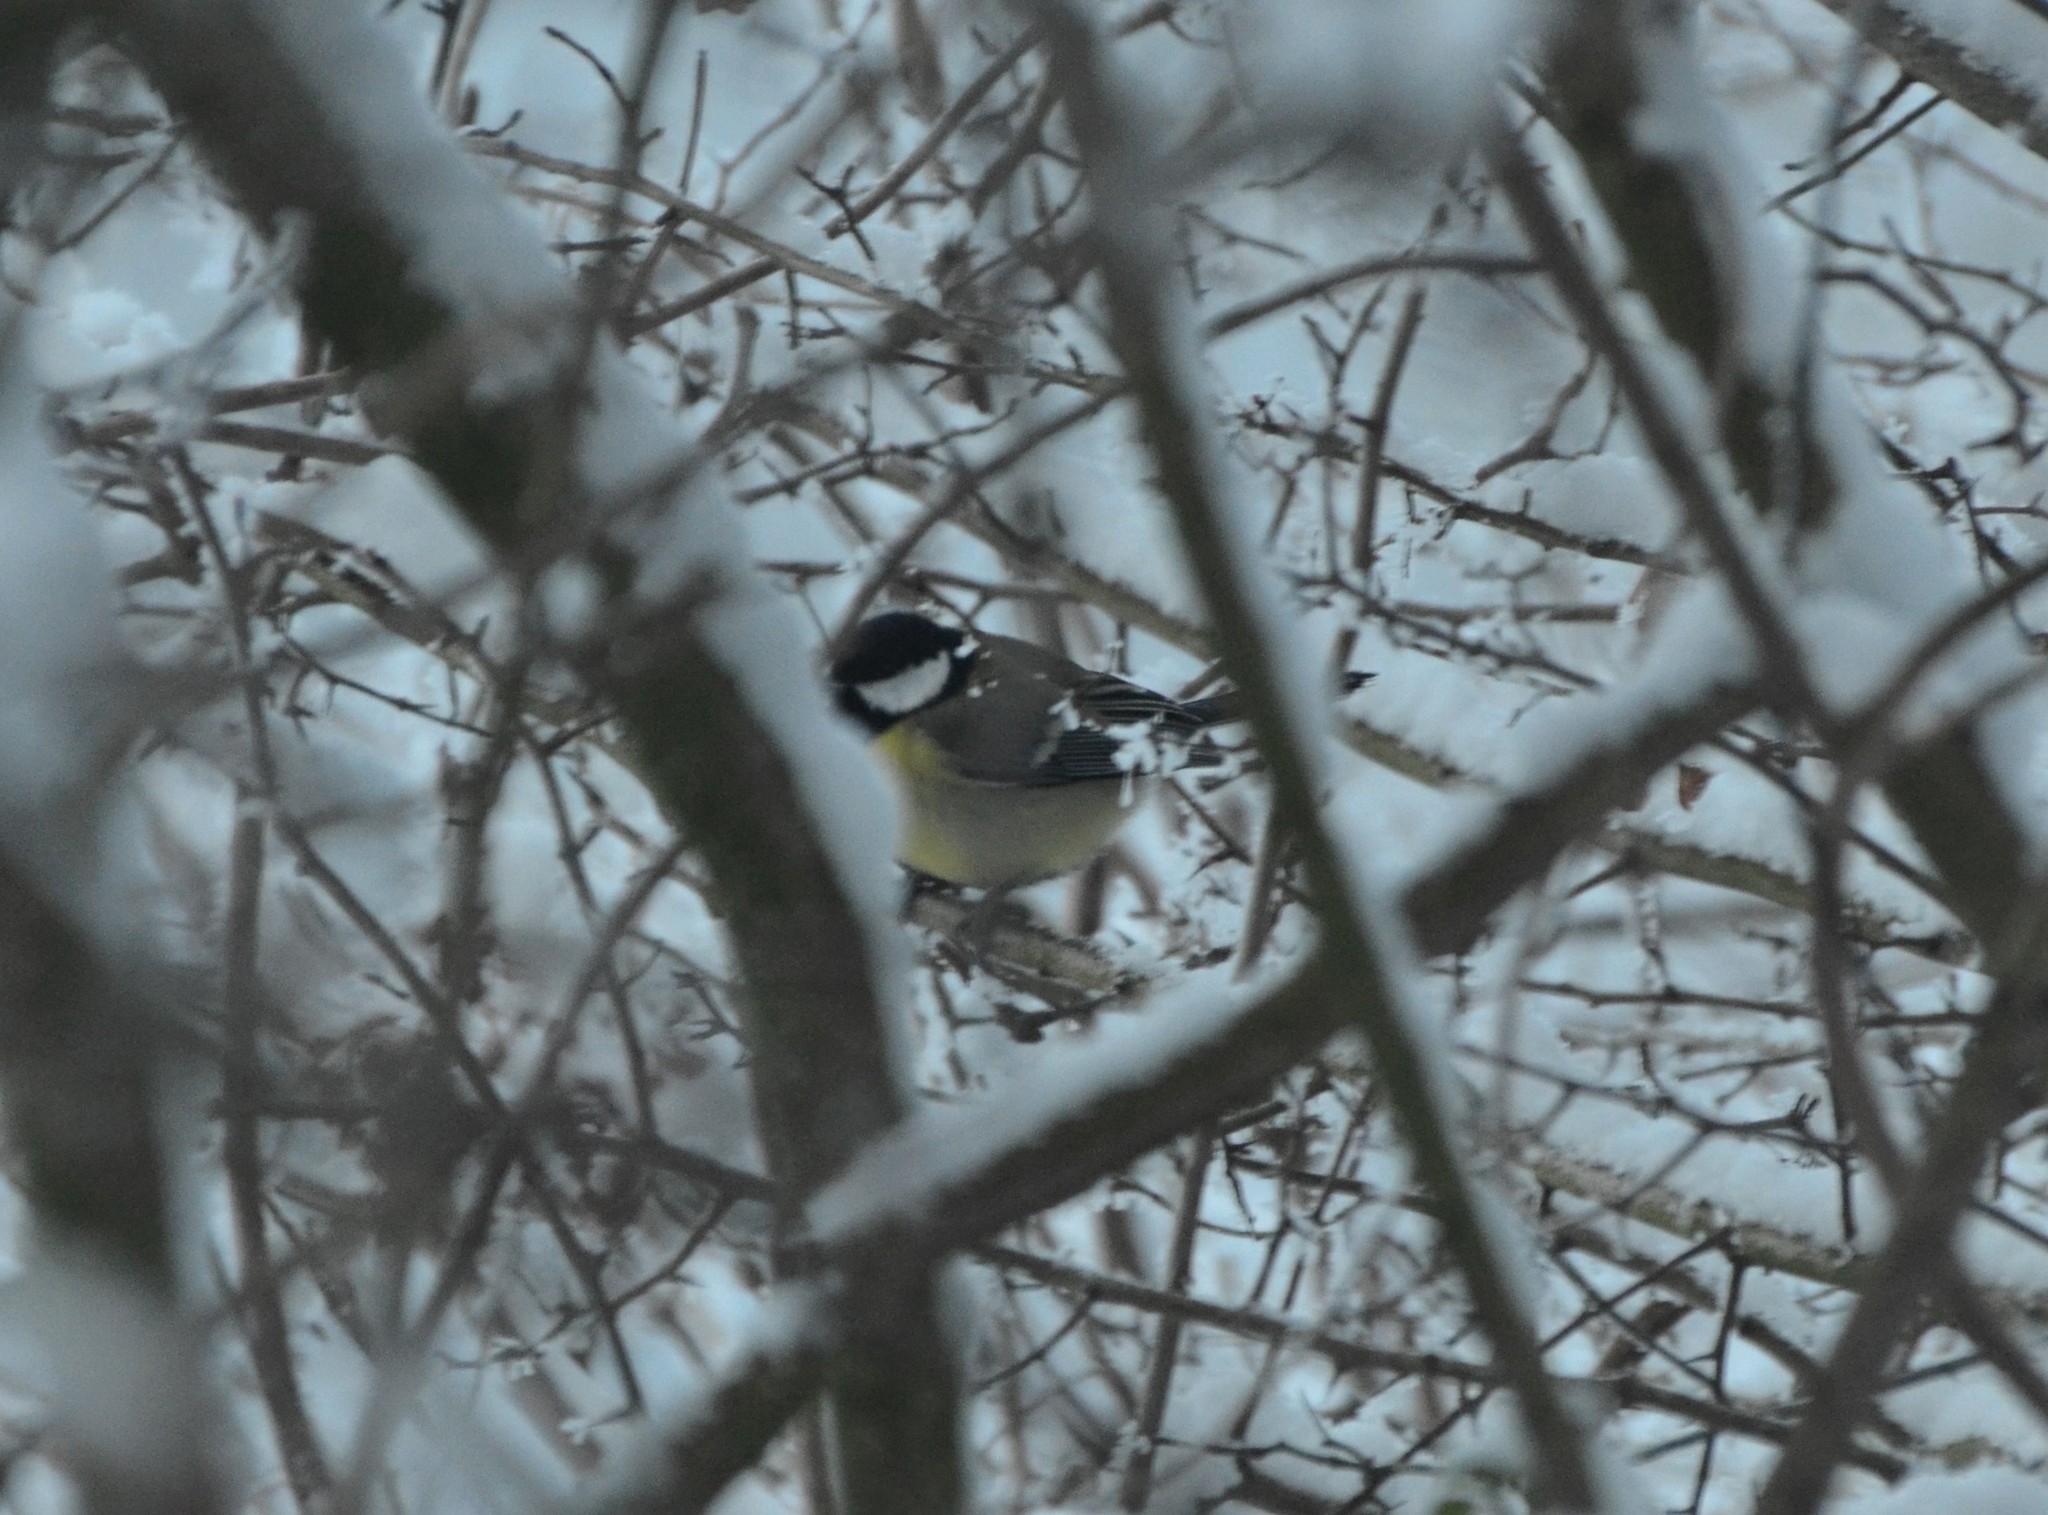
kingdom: Animalia
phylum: Chordata
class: Aves
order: Passeriformes
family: Paridae
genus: Parus
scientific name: Parus major
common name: Great tit
